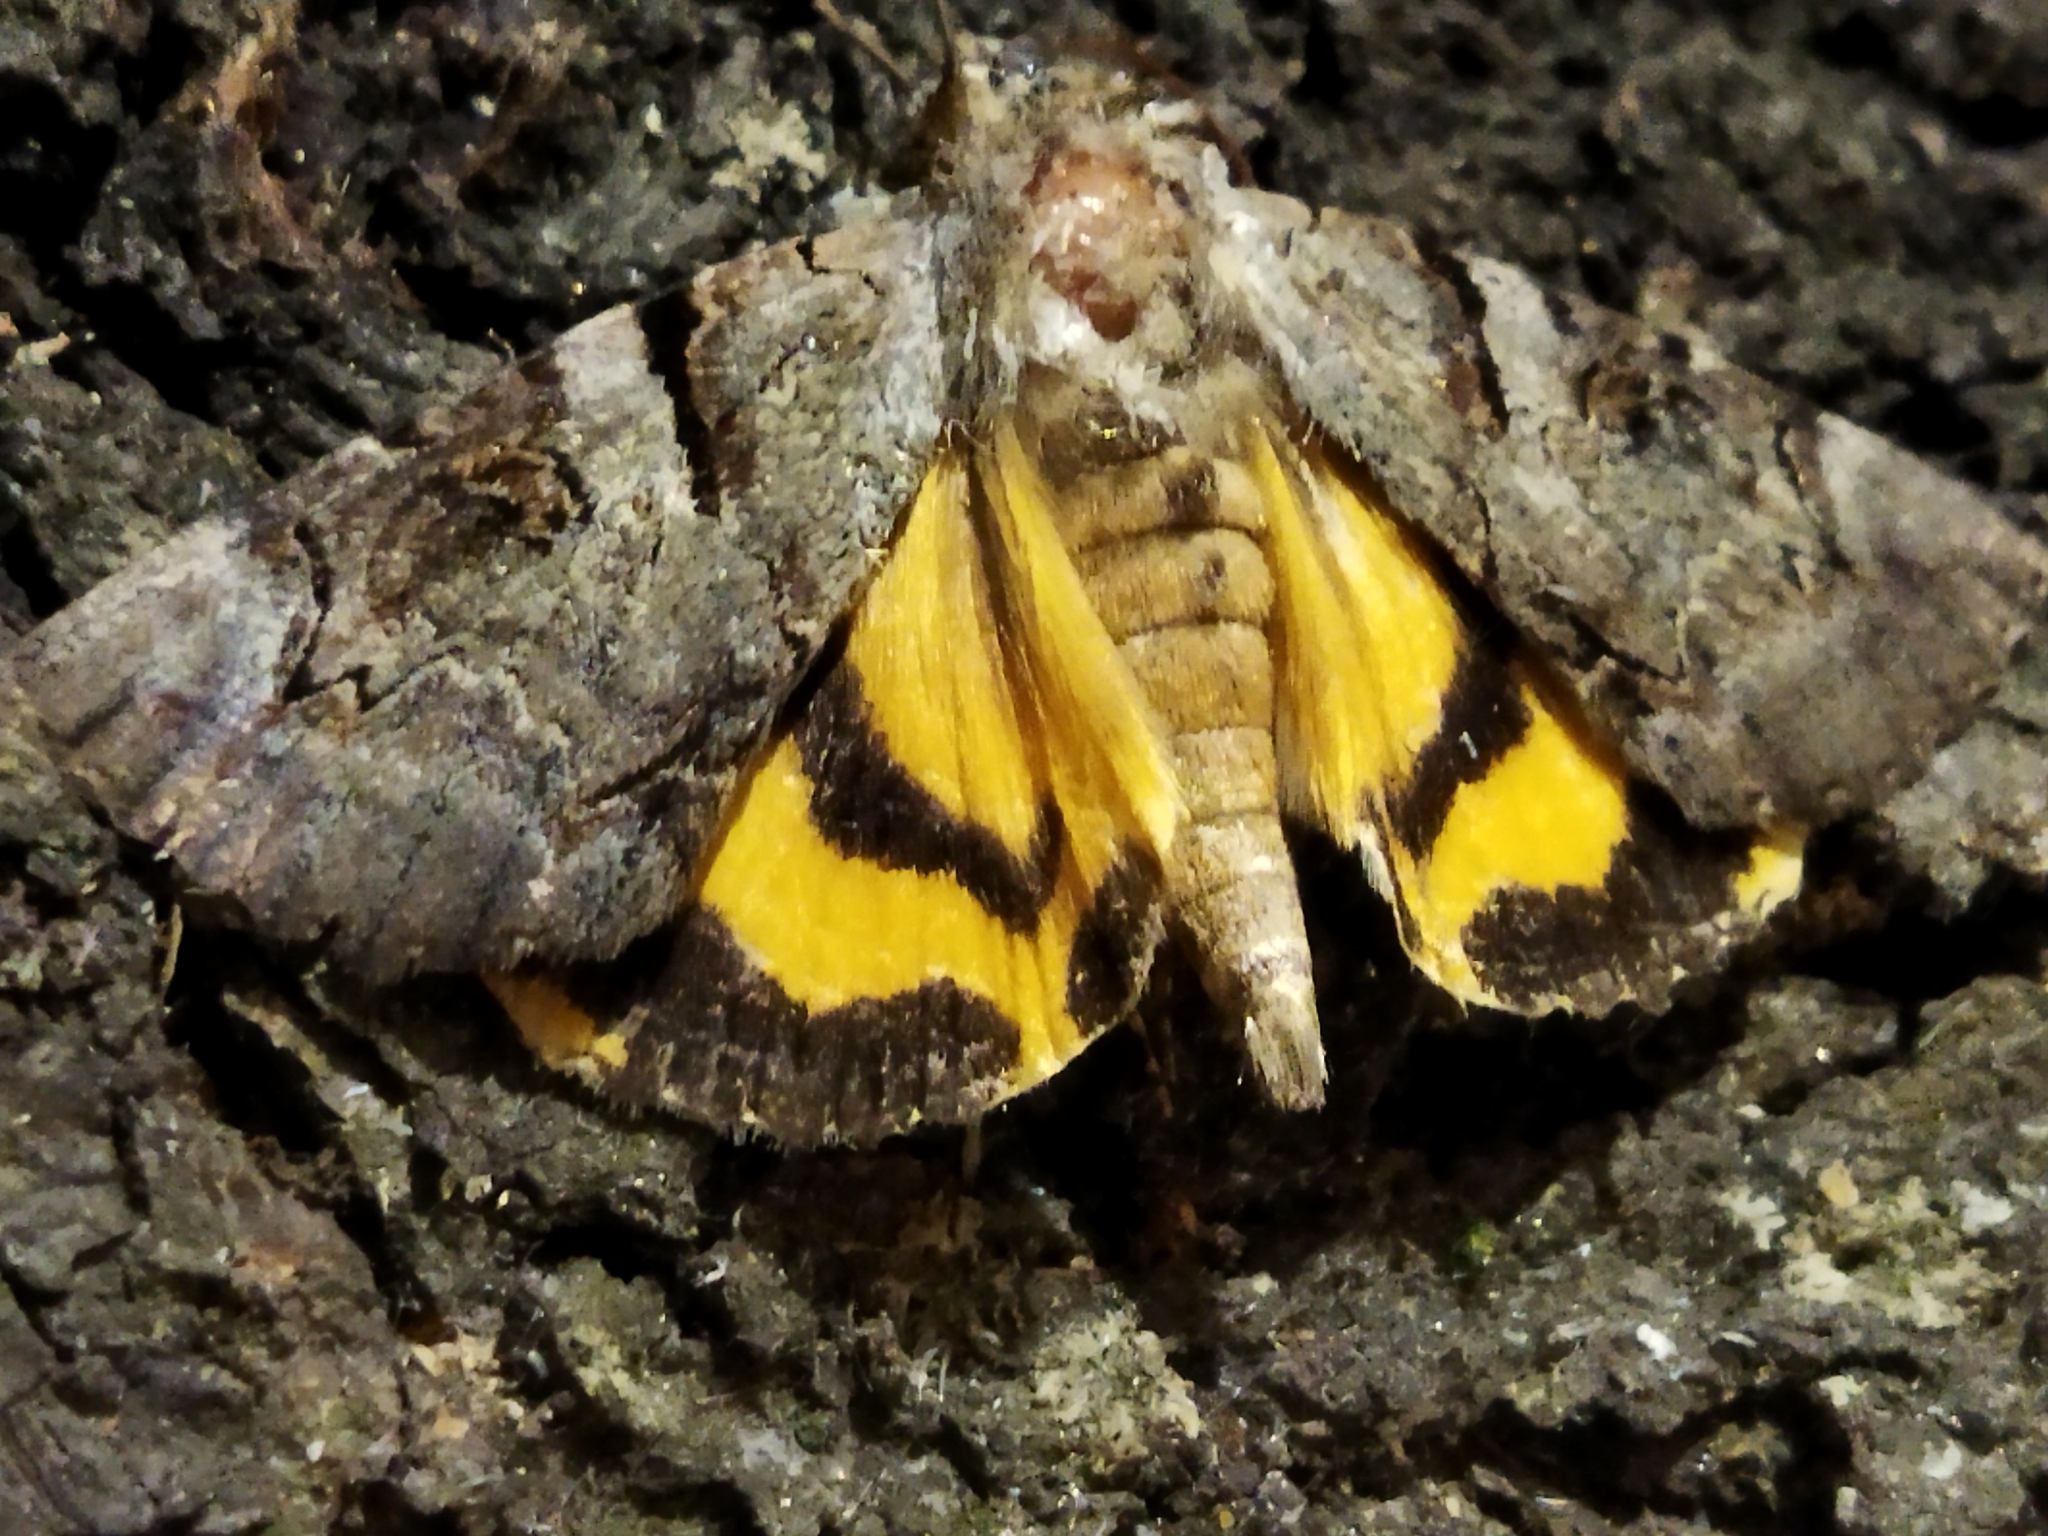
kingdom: Animalia
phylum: Arthropoda
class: Insecta
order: Lepidoptera
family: Erebidae
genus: Catocala
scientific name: Catocala hymenaea
